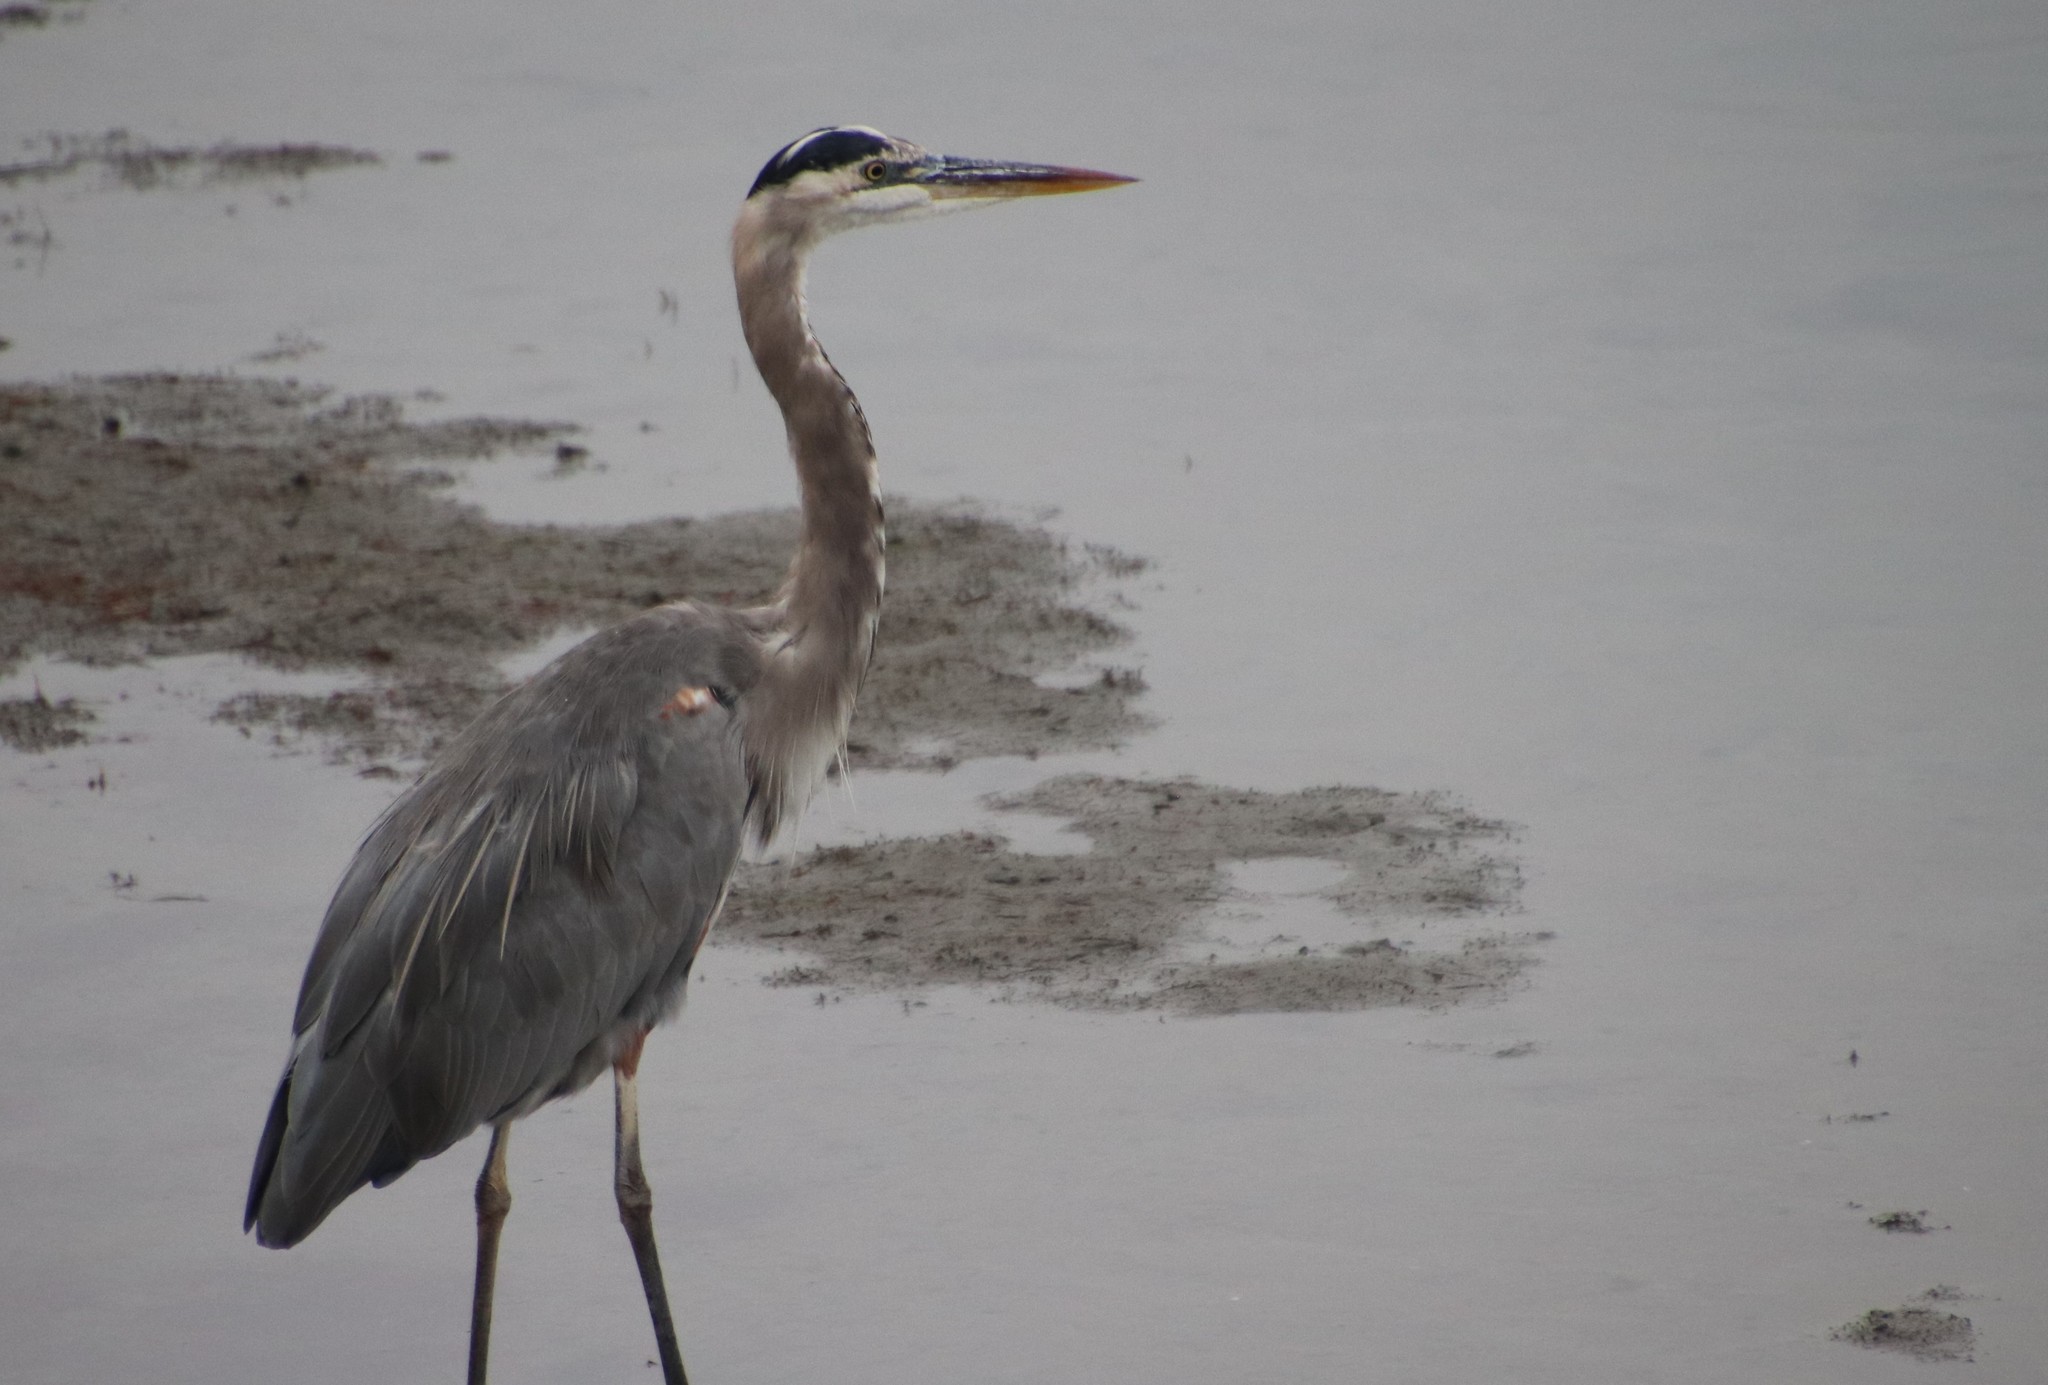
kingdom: Animalia
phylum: Chordata
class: Aves
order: Pelecaniformes
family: Ardeidae
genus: Ardea
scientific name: Ardea herodias
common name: Great blue heron
